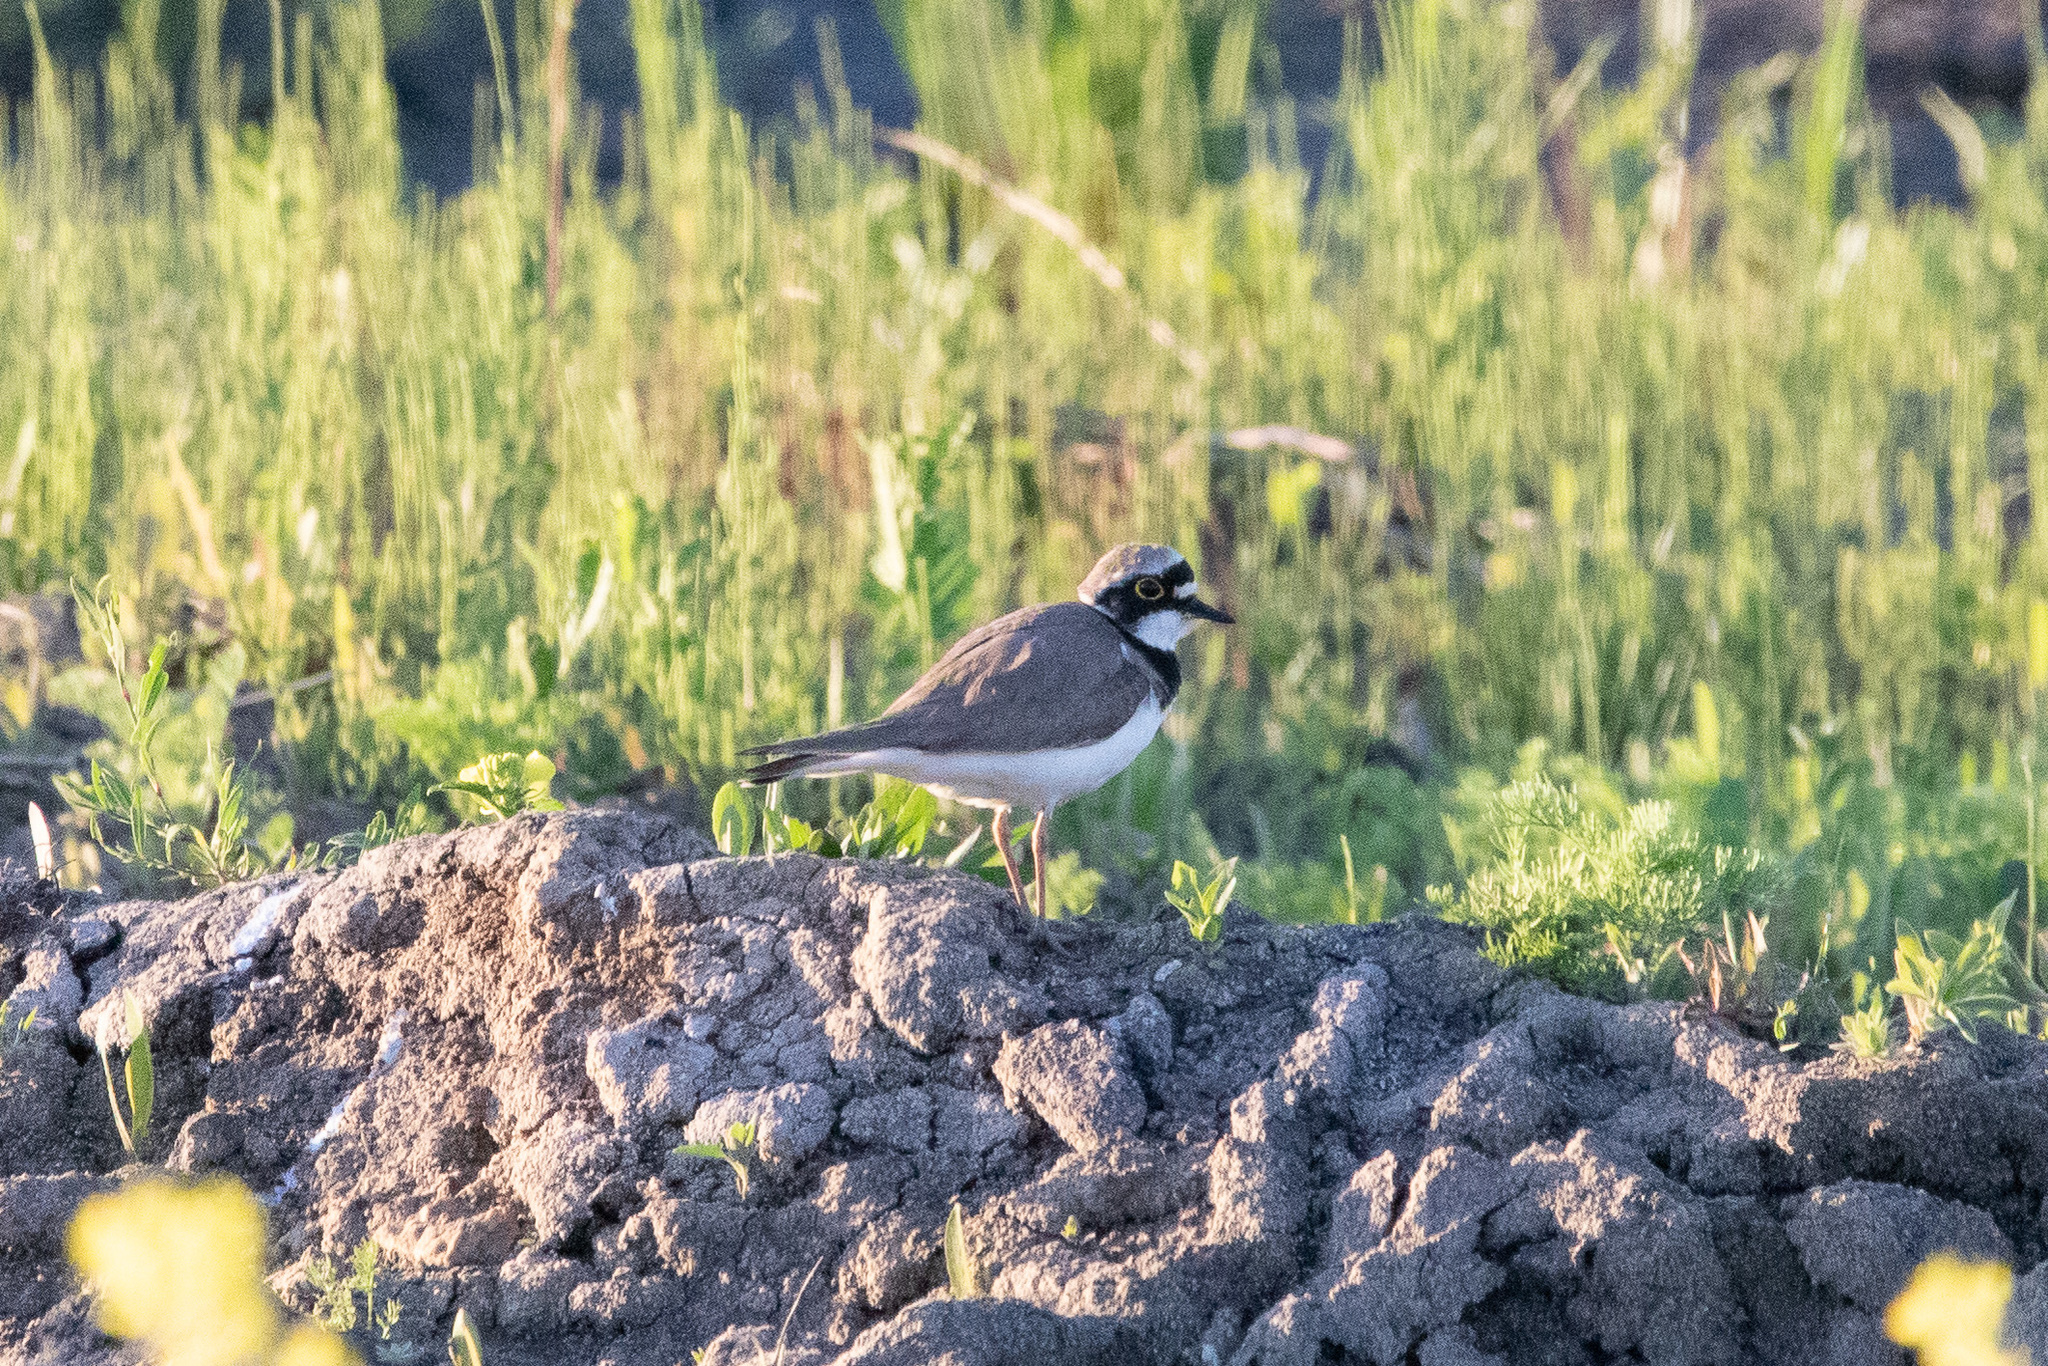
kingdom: Animalia
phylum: Chordata
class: Aves
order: Charadriiformes
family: Charadriidae
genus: Charadrius
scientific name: Charadrius dubius
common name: Little ringed plover
